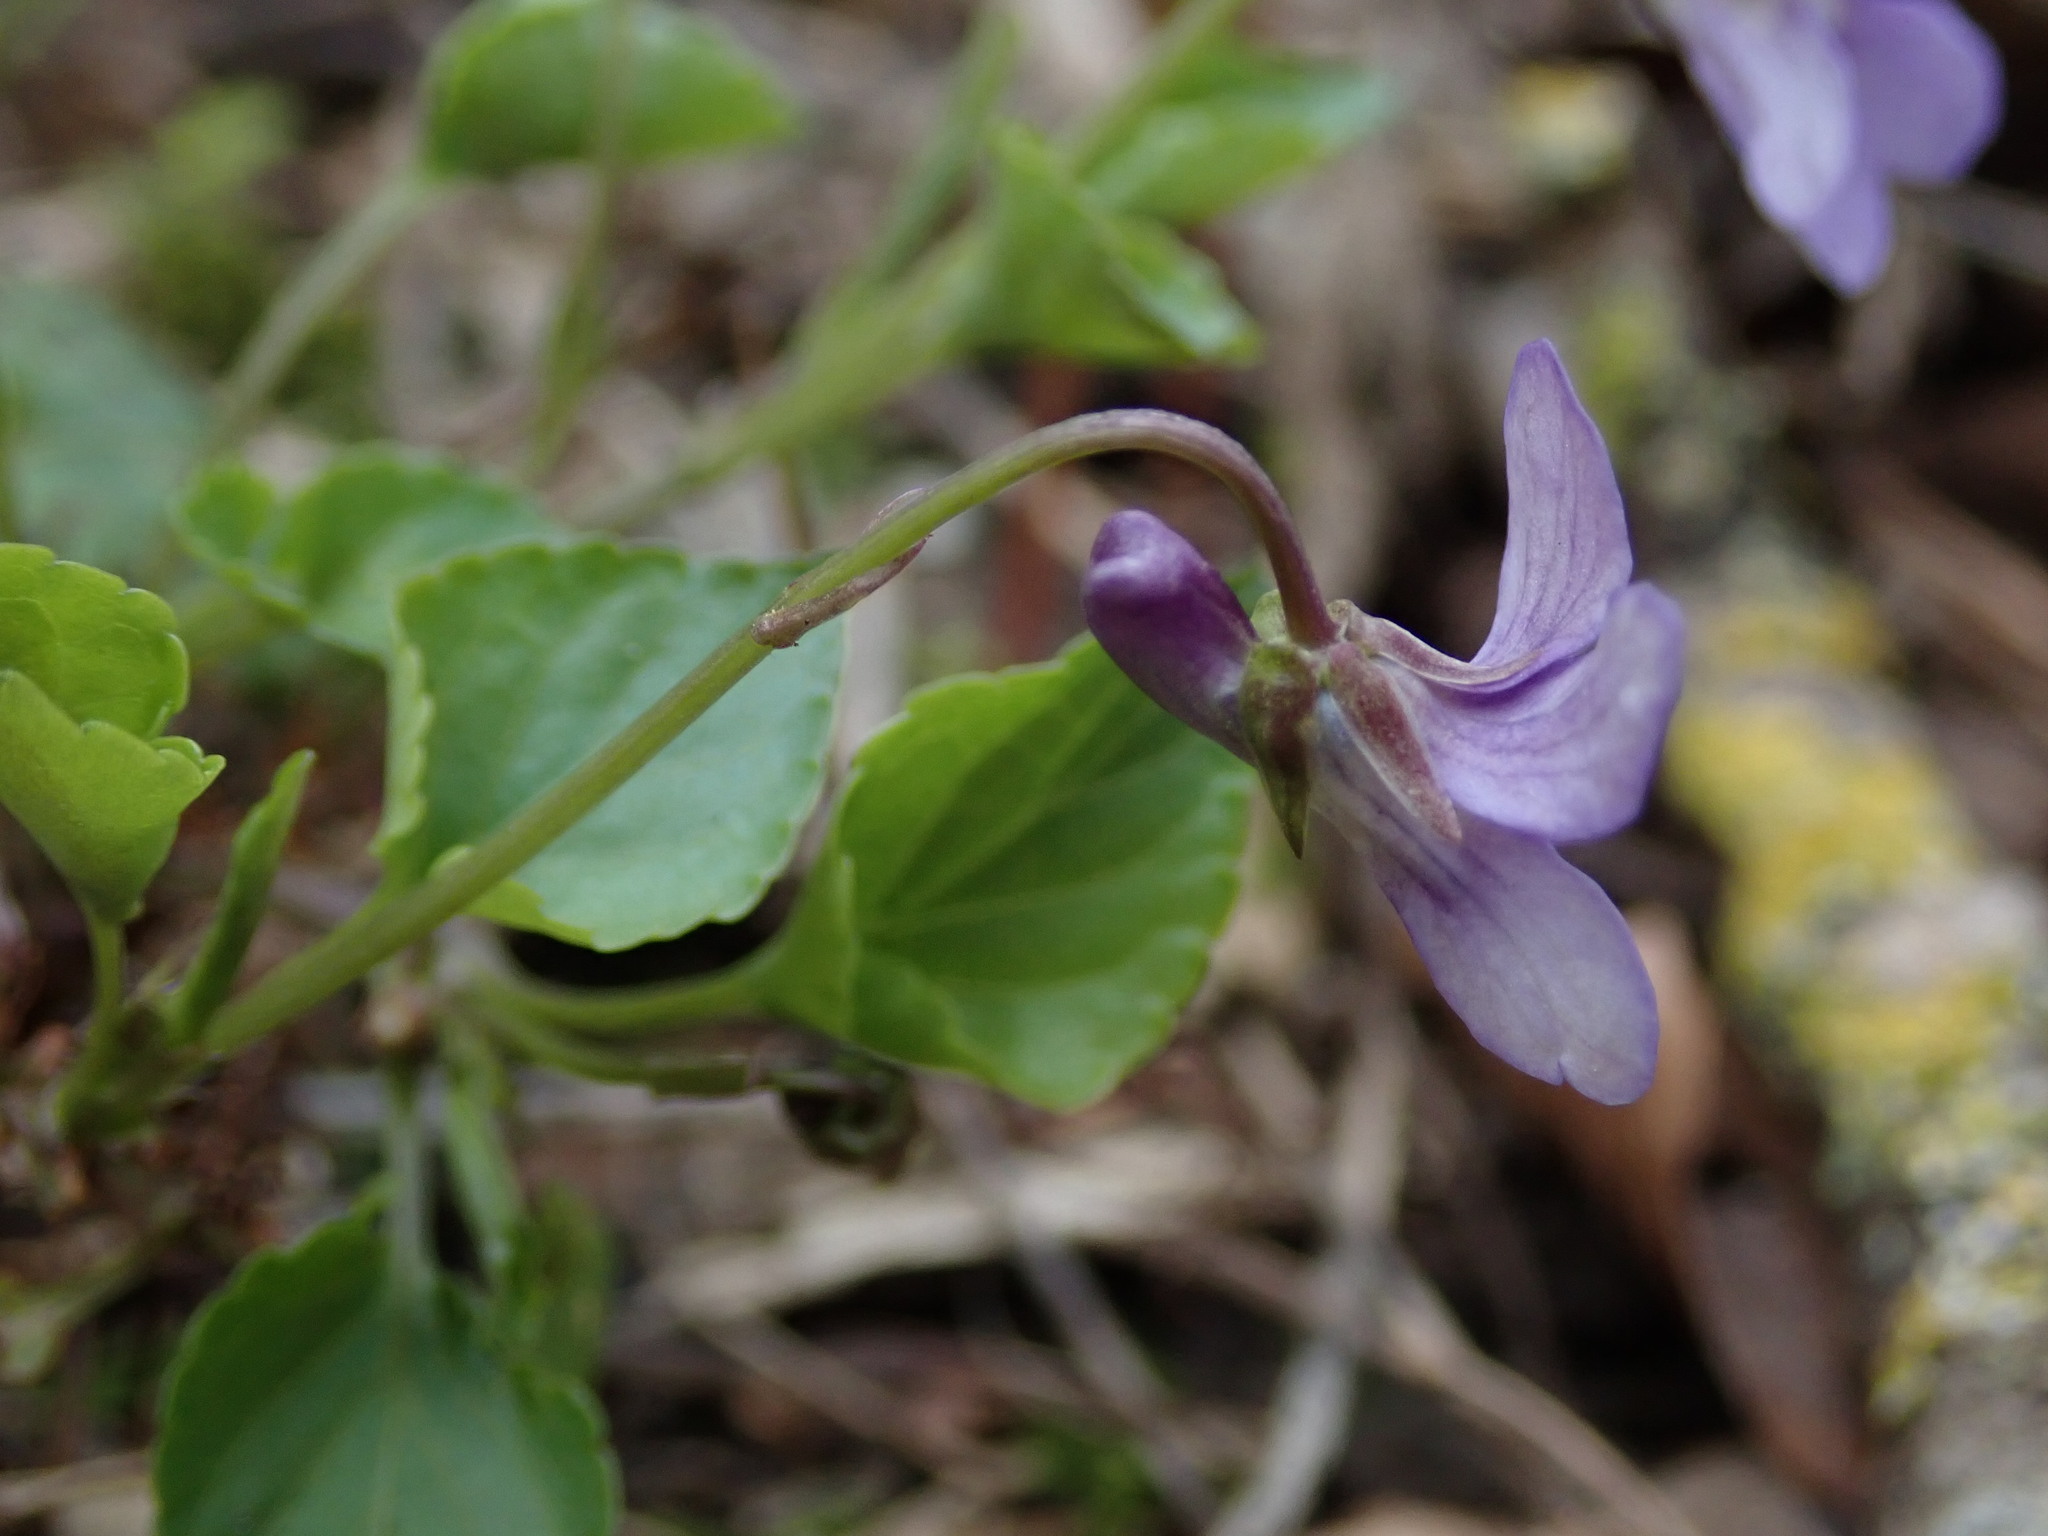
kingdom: Plantae
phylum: Tracheophyta
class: Magnoliopsida
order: Malpighiales
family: Violaceae
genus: Viola
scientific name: Viola reichenbachiana
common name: Early dog-violet
